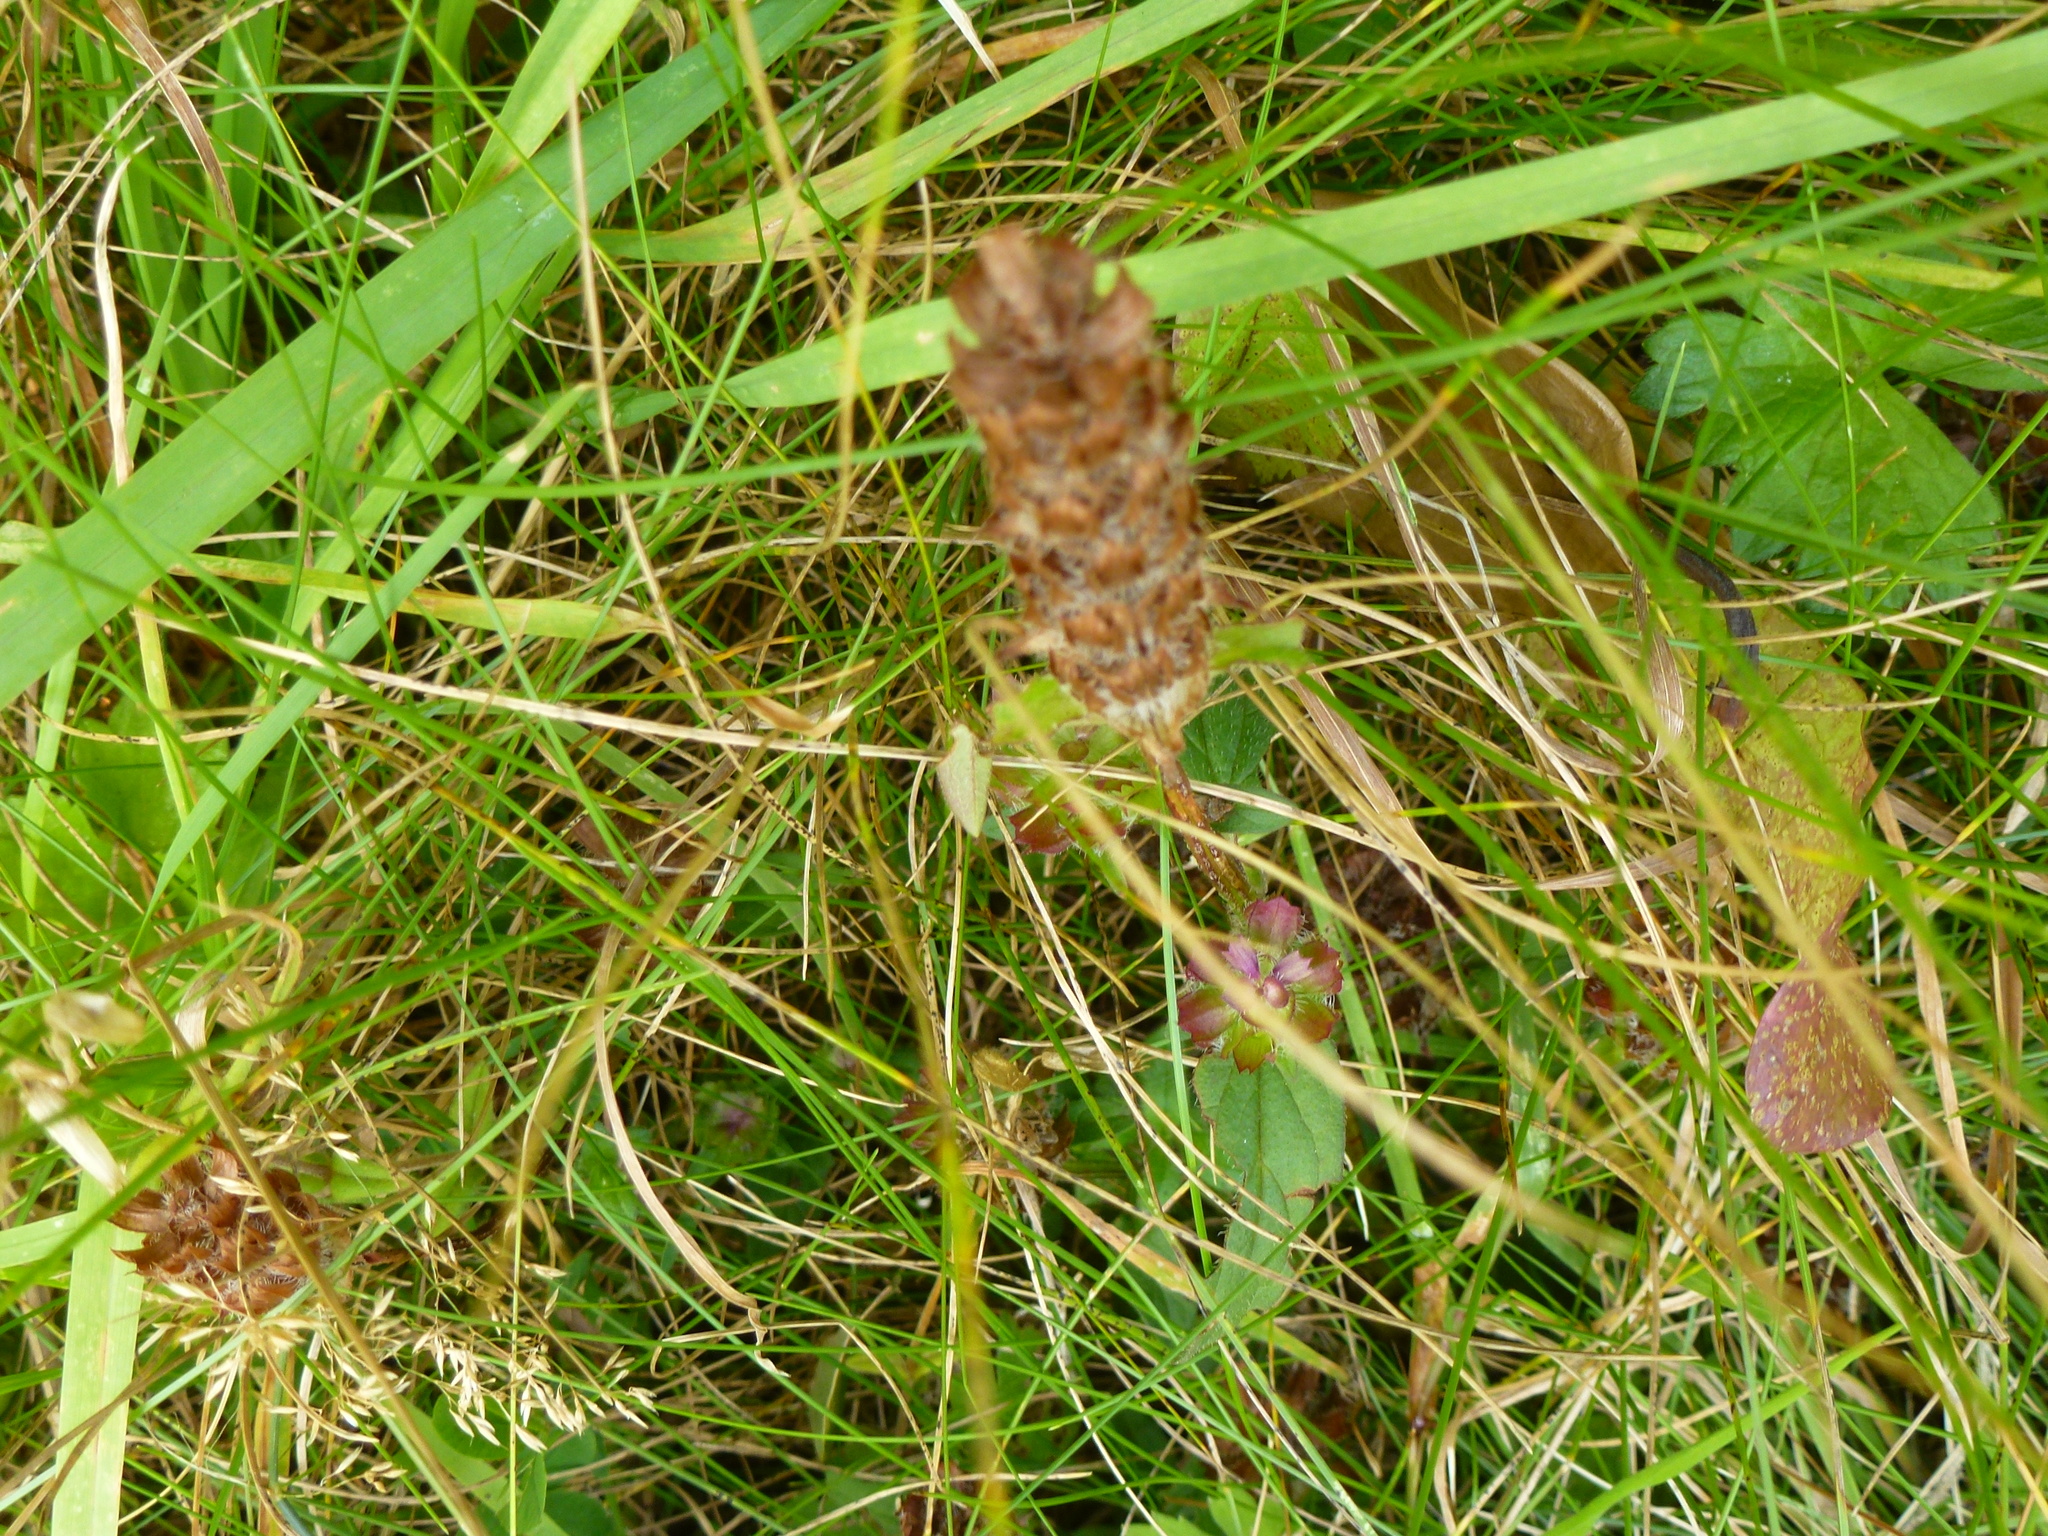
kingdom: Plantae
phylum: Tracheophyta
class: Magnoliopsida
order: Lamiales
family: Lamiaceae
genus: Prunella
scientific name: Prunella vulgaris
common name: Heal-all
